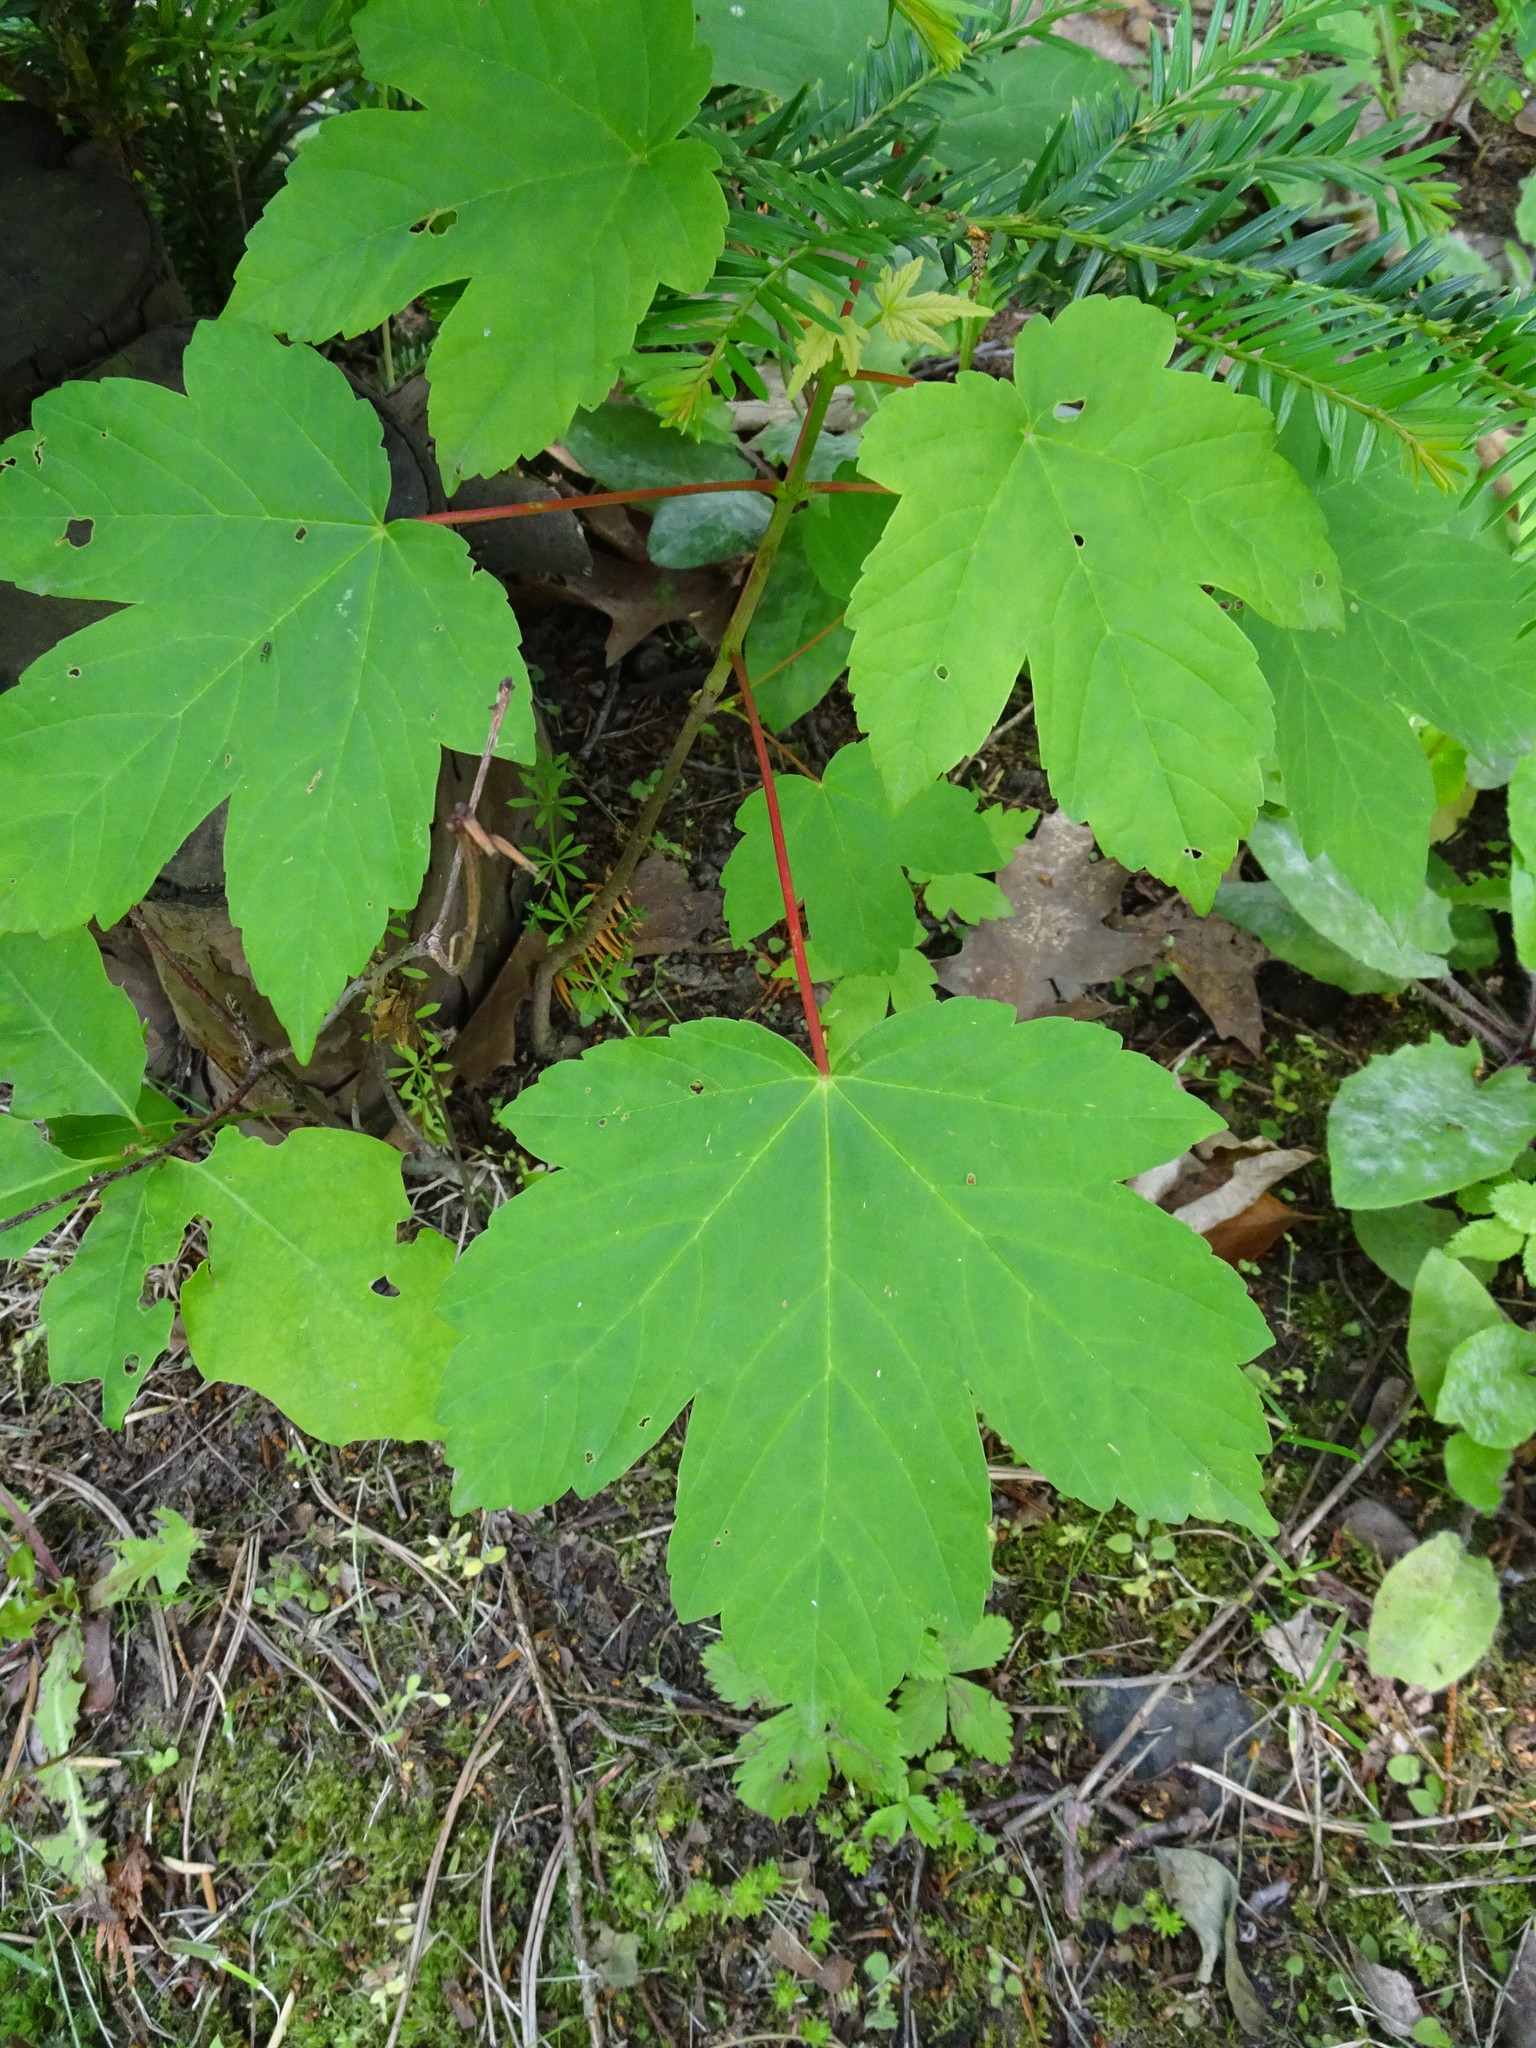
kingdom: Plantae
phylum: Tracheophyta
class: Magnoliopsida
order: Sapindales
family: Sapindaceae
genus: Acer
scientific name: Acer pseudoplatanus
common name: Sycamore
